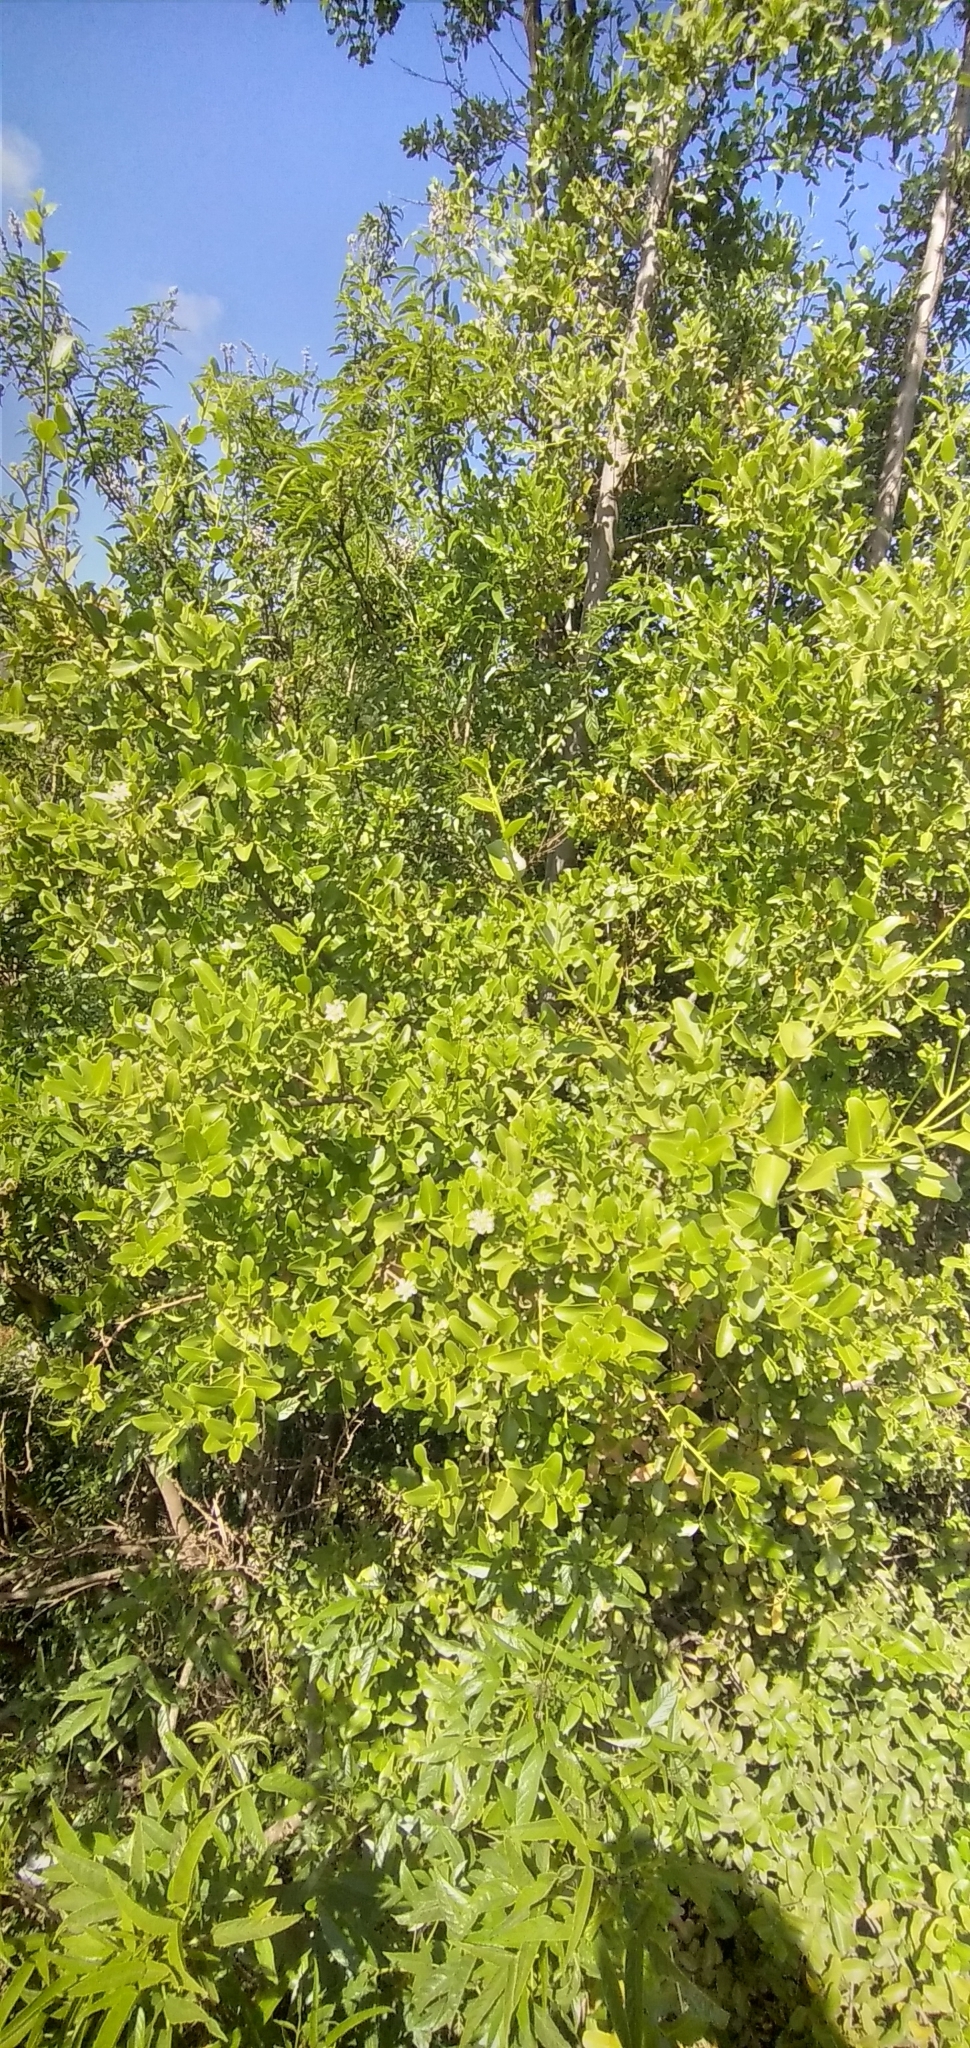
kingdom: Plantae
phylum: Tracheophyta
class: Magnoliopsida
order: Fabales
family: Quillajaceae
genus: Quillaja
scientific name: Quillaja saponaria
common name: Murillo's-bark
